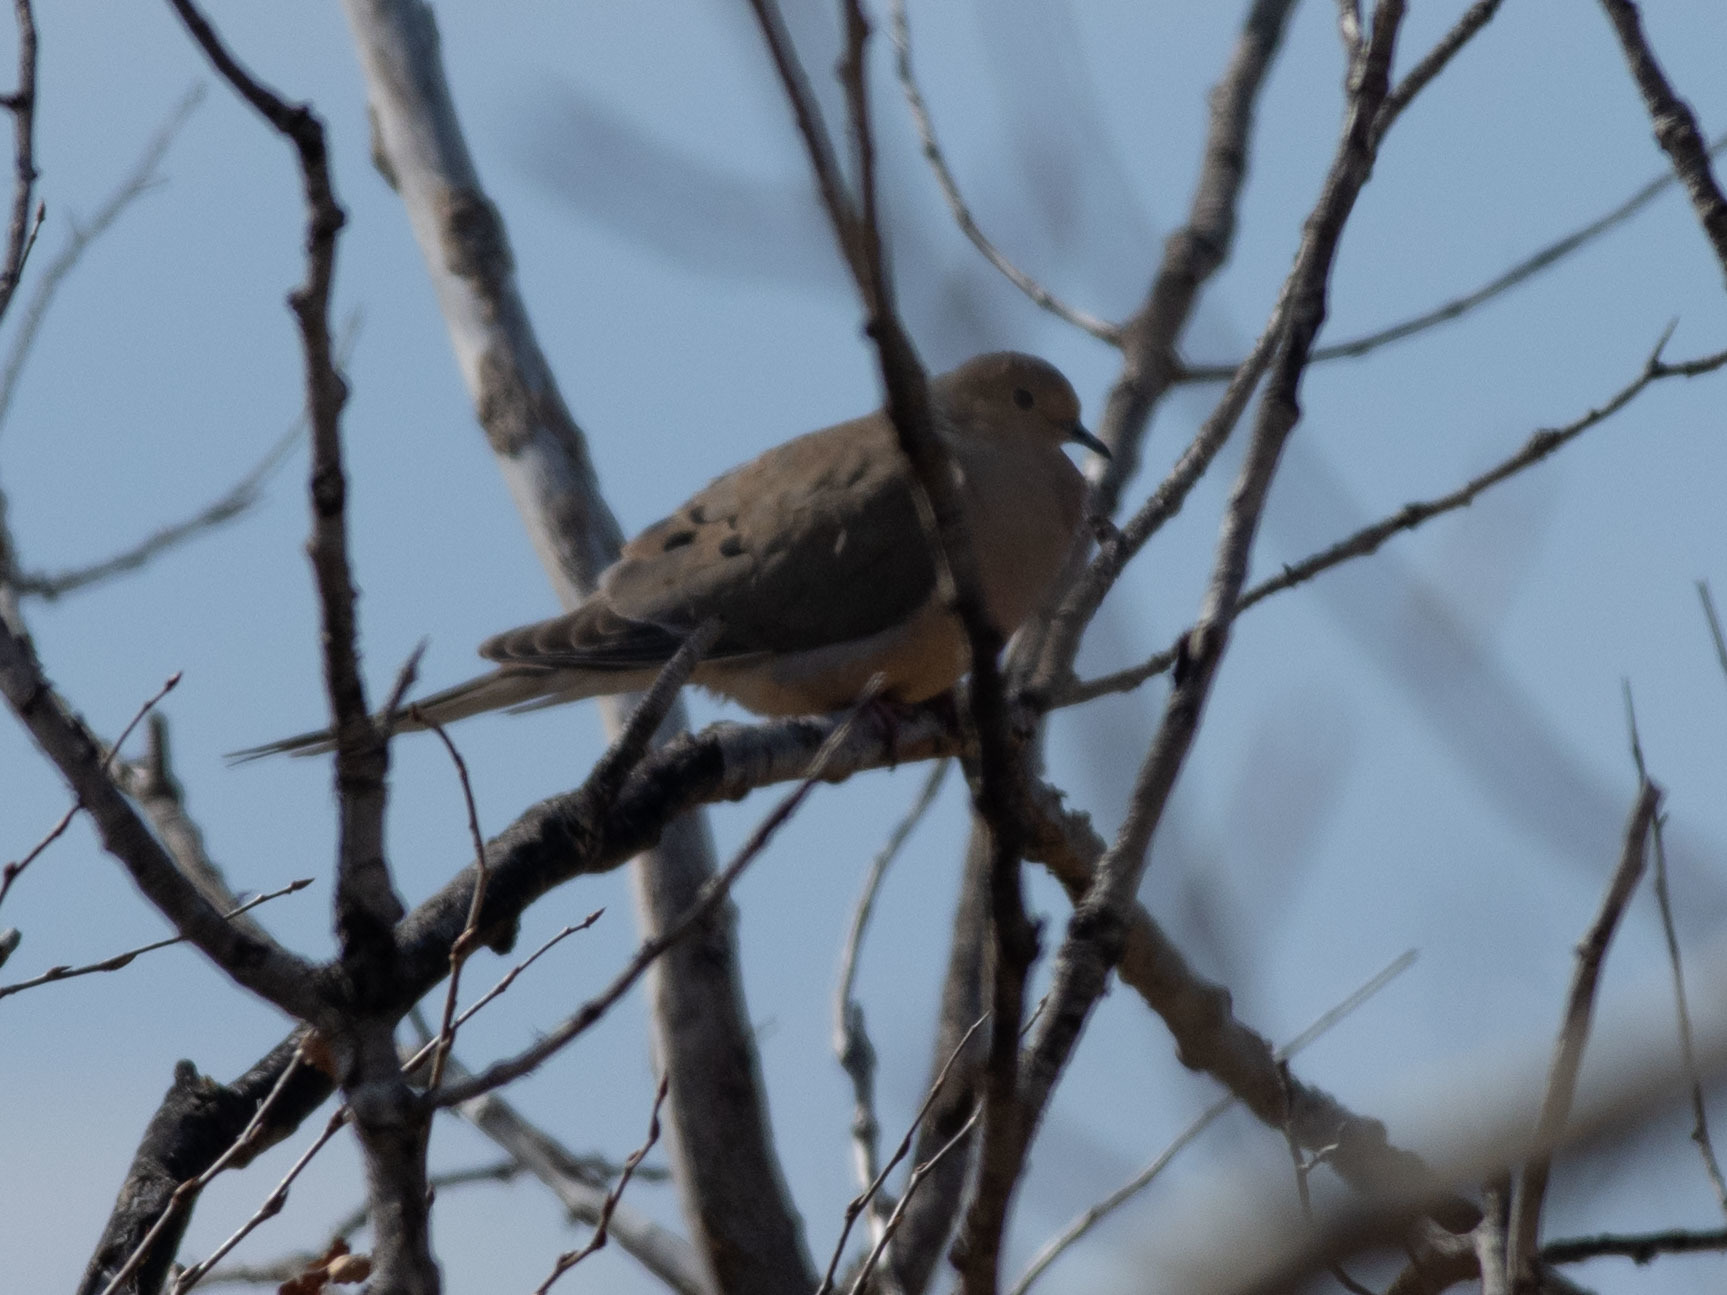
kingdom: Animalia
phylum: Chordata
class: Aves
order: Columbiformes
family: Columbidae
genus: Zenaida
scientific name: Zenaida macroura
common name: Mourning dove
